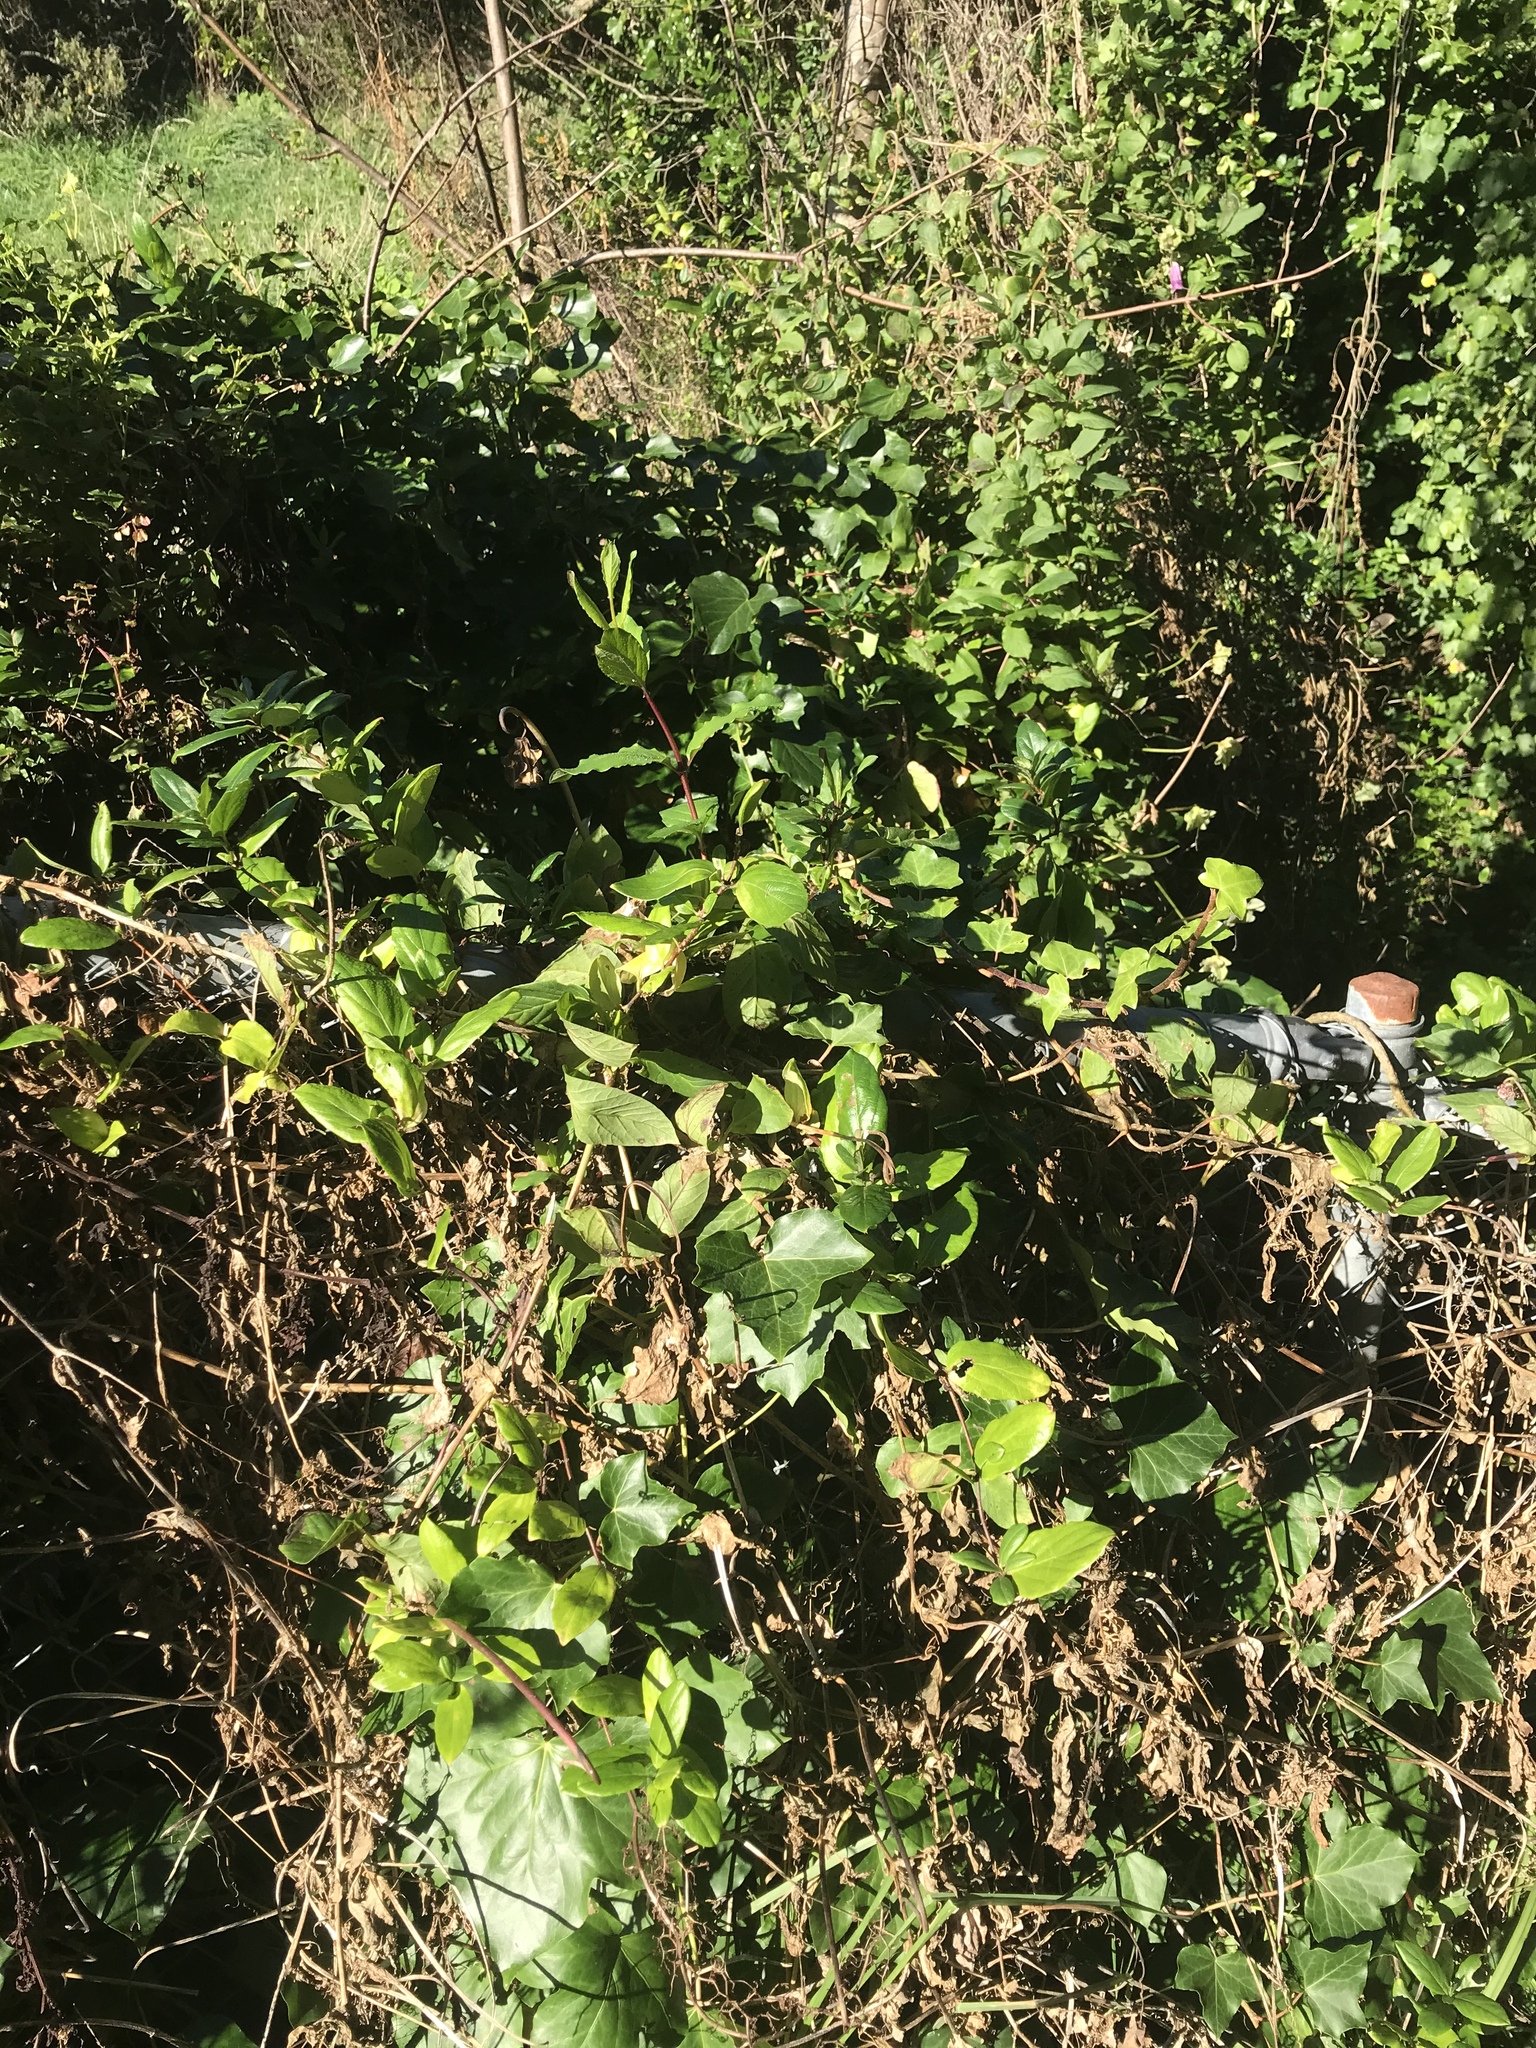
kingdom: Plantae
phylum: Tracheophyta
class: Magnoliopsida
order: Dipsacales
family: Caprifoliaceae
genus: Lonicera
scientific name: Lonicera japonica
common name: Japanese honeysuckle
